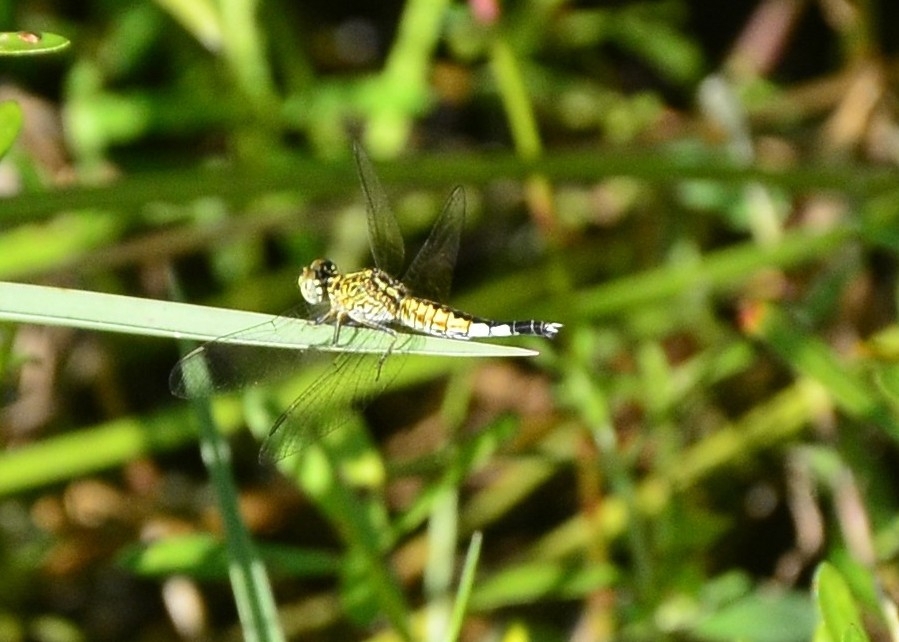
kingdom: Animalia
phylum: Arthropoda
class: Insecta
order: Odonata
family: Libellulidae
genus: Acisoma
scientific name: Acisoma panorpoides
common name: Asian pintail
